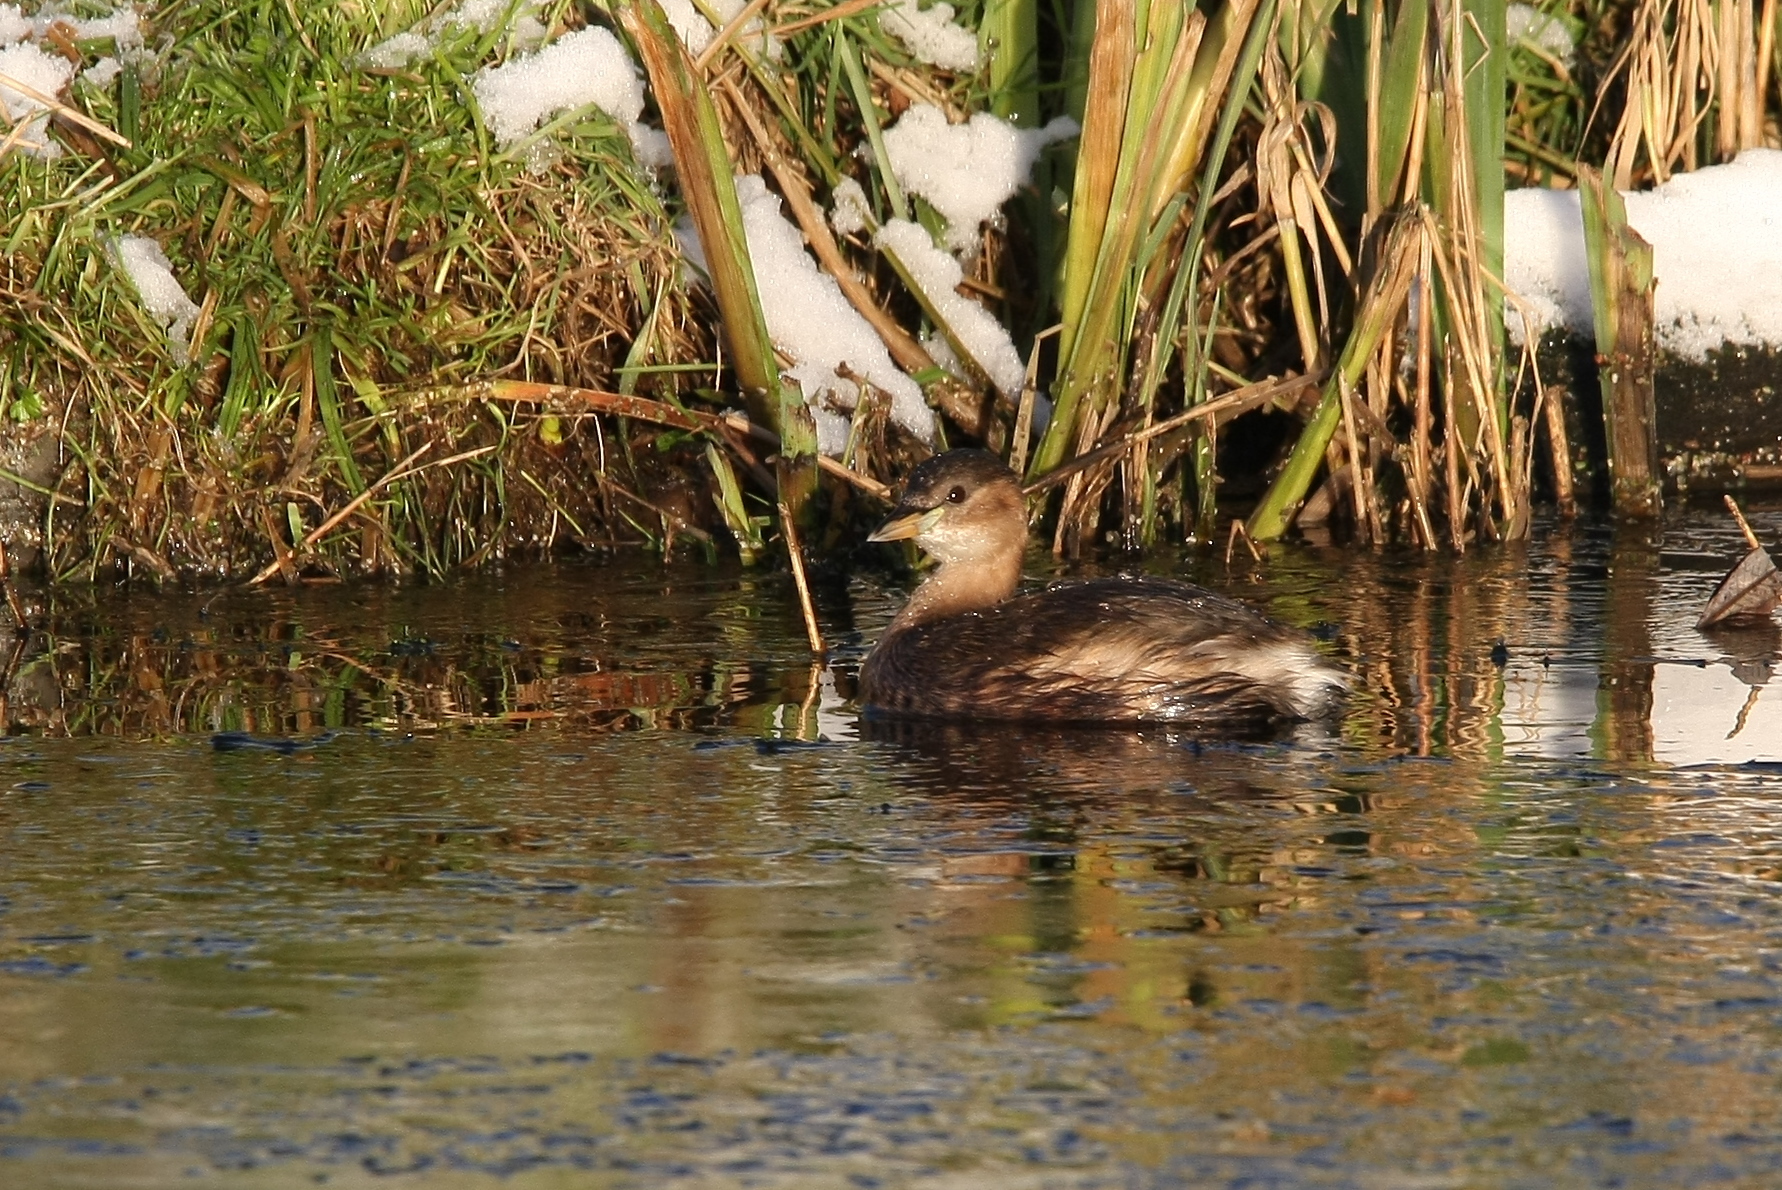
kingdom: Animalia
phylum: Chordata
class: Aves
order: Podicipediformes
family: Podicipedidae
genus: Tachybaptus
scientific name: Tachybaptus ruficollis
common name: Little grebe
